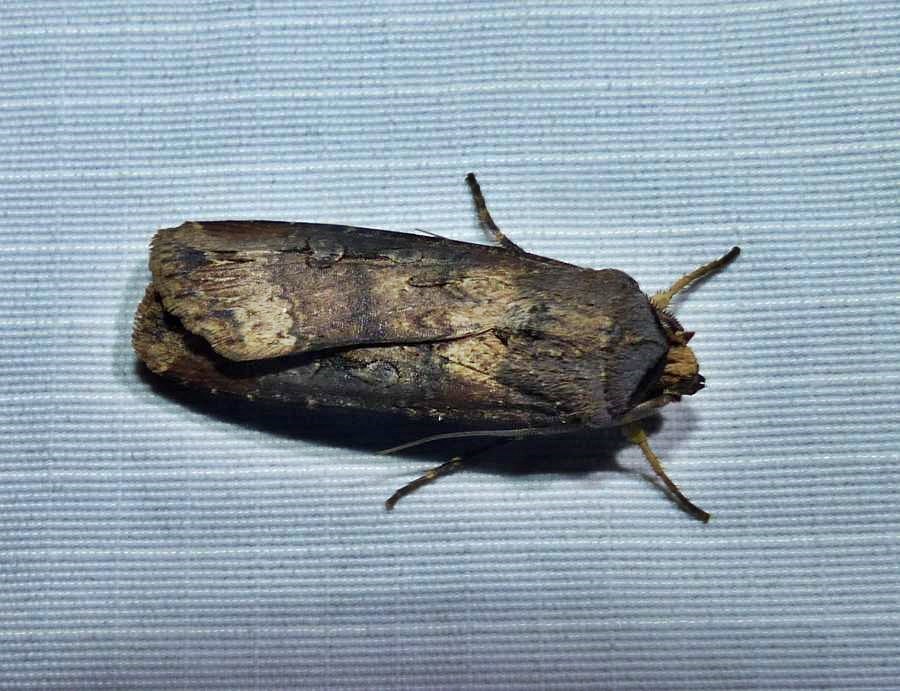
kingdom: Animalia
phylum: Arthropoda
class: Insecta
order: Lepidoptera
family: Noctuidae
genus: Agrotis
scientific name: Agrotis ipsilon
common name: Dark sword-grass
